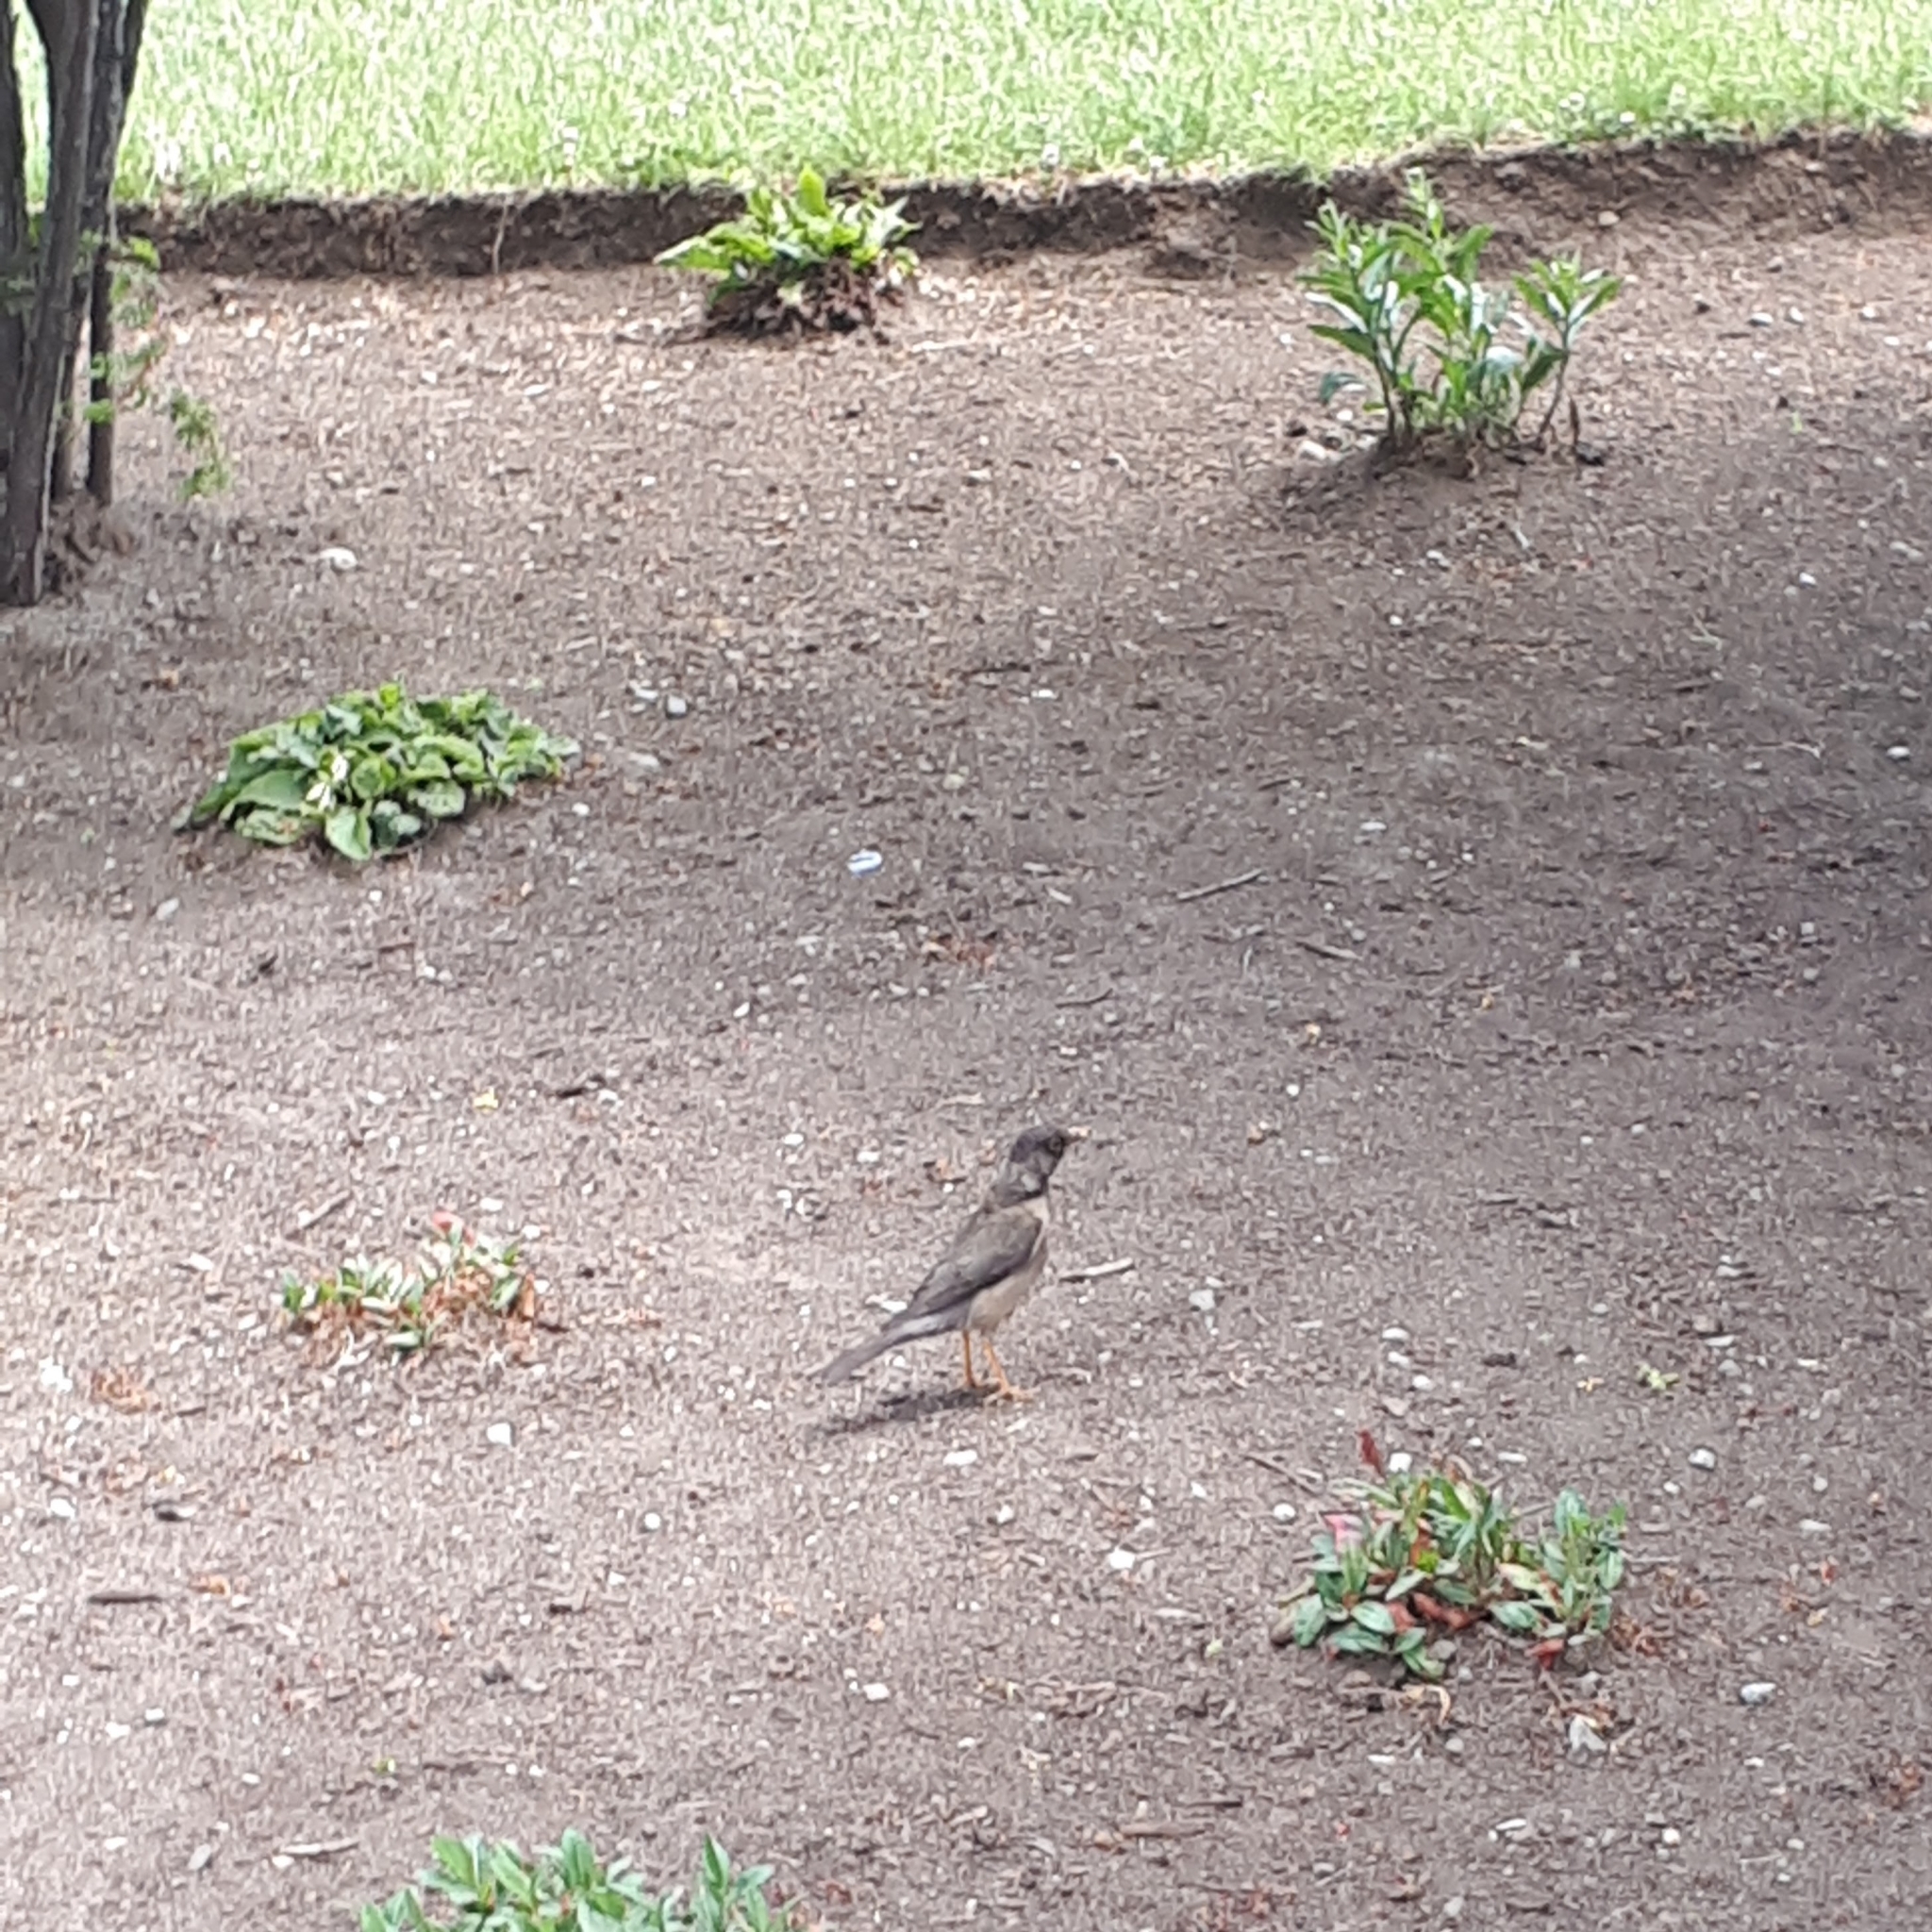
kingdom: Animalia
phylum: Chordata
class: Aves
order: Passeriformes
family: Turdidae
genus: Turdus
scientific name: Turdus falcklandii
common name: Austral thrush
